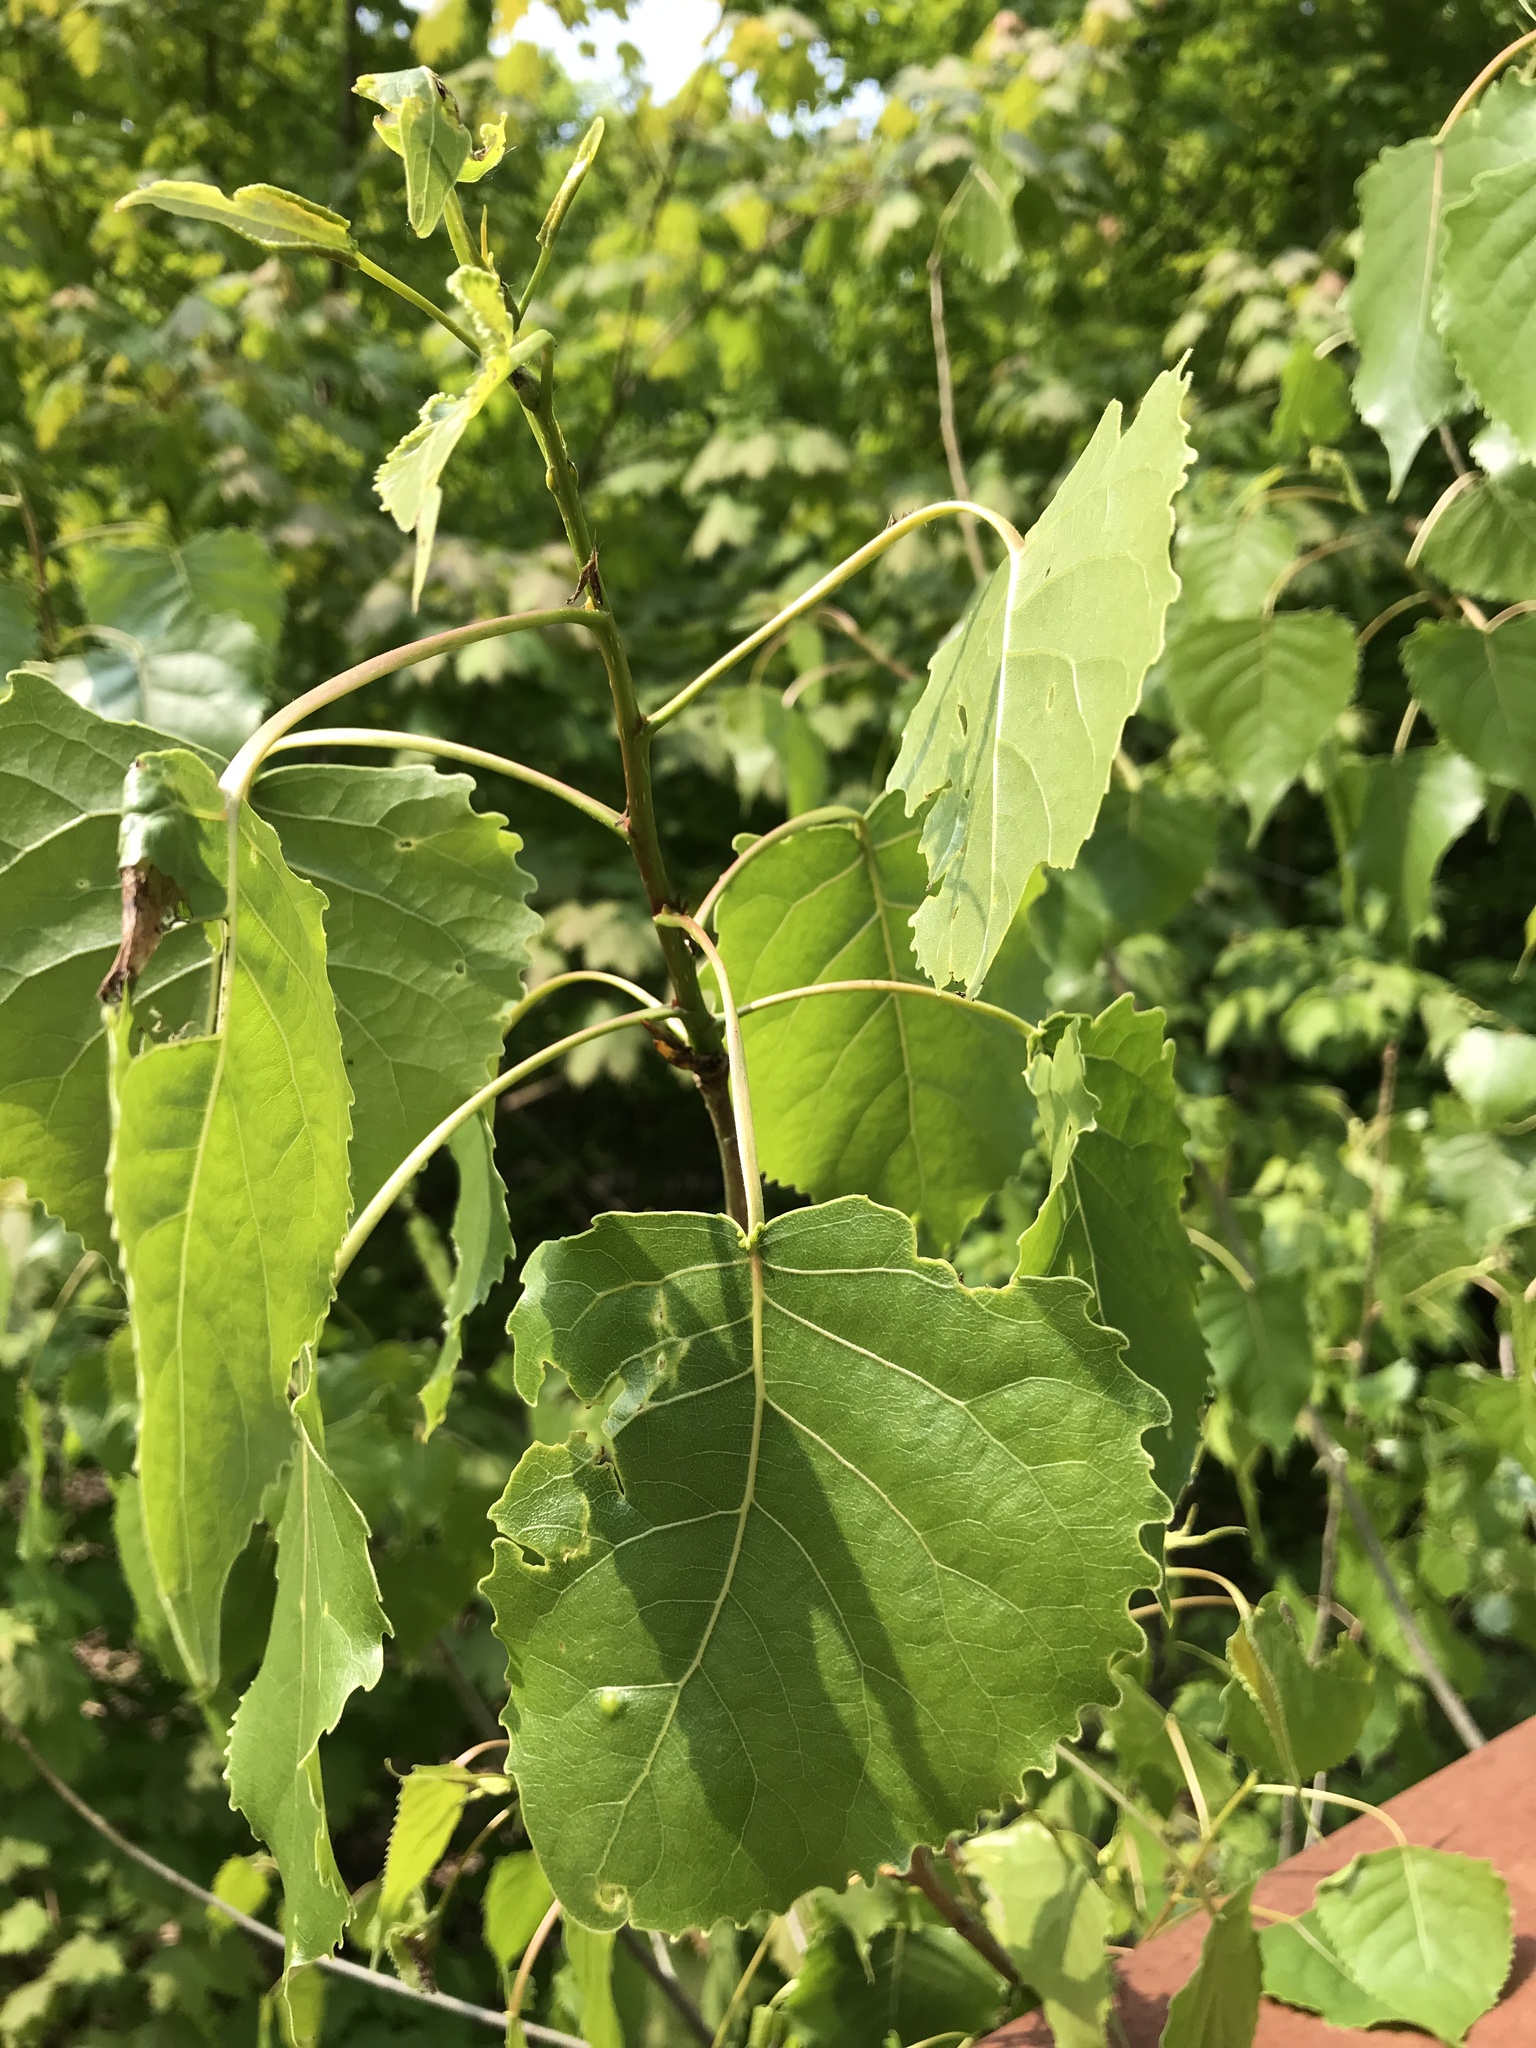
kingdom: Plantae
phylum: Tracheophyta
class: Magnoliopsida
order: Malpighiales
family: Salicaceae
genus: Populus
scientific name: Populus deltoides
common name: Eastern cottonwood
